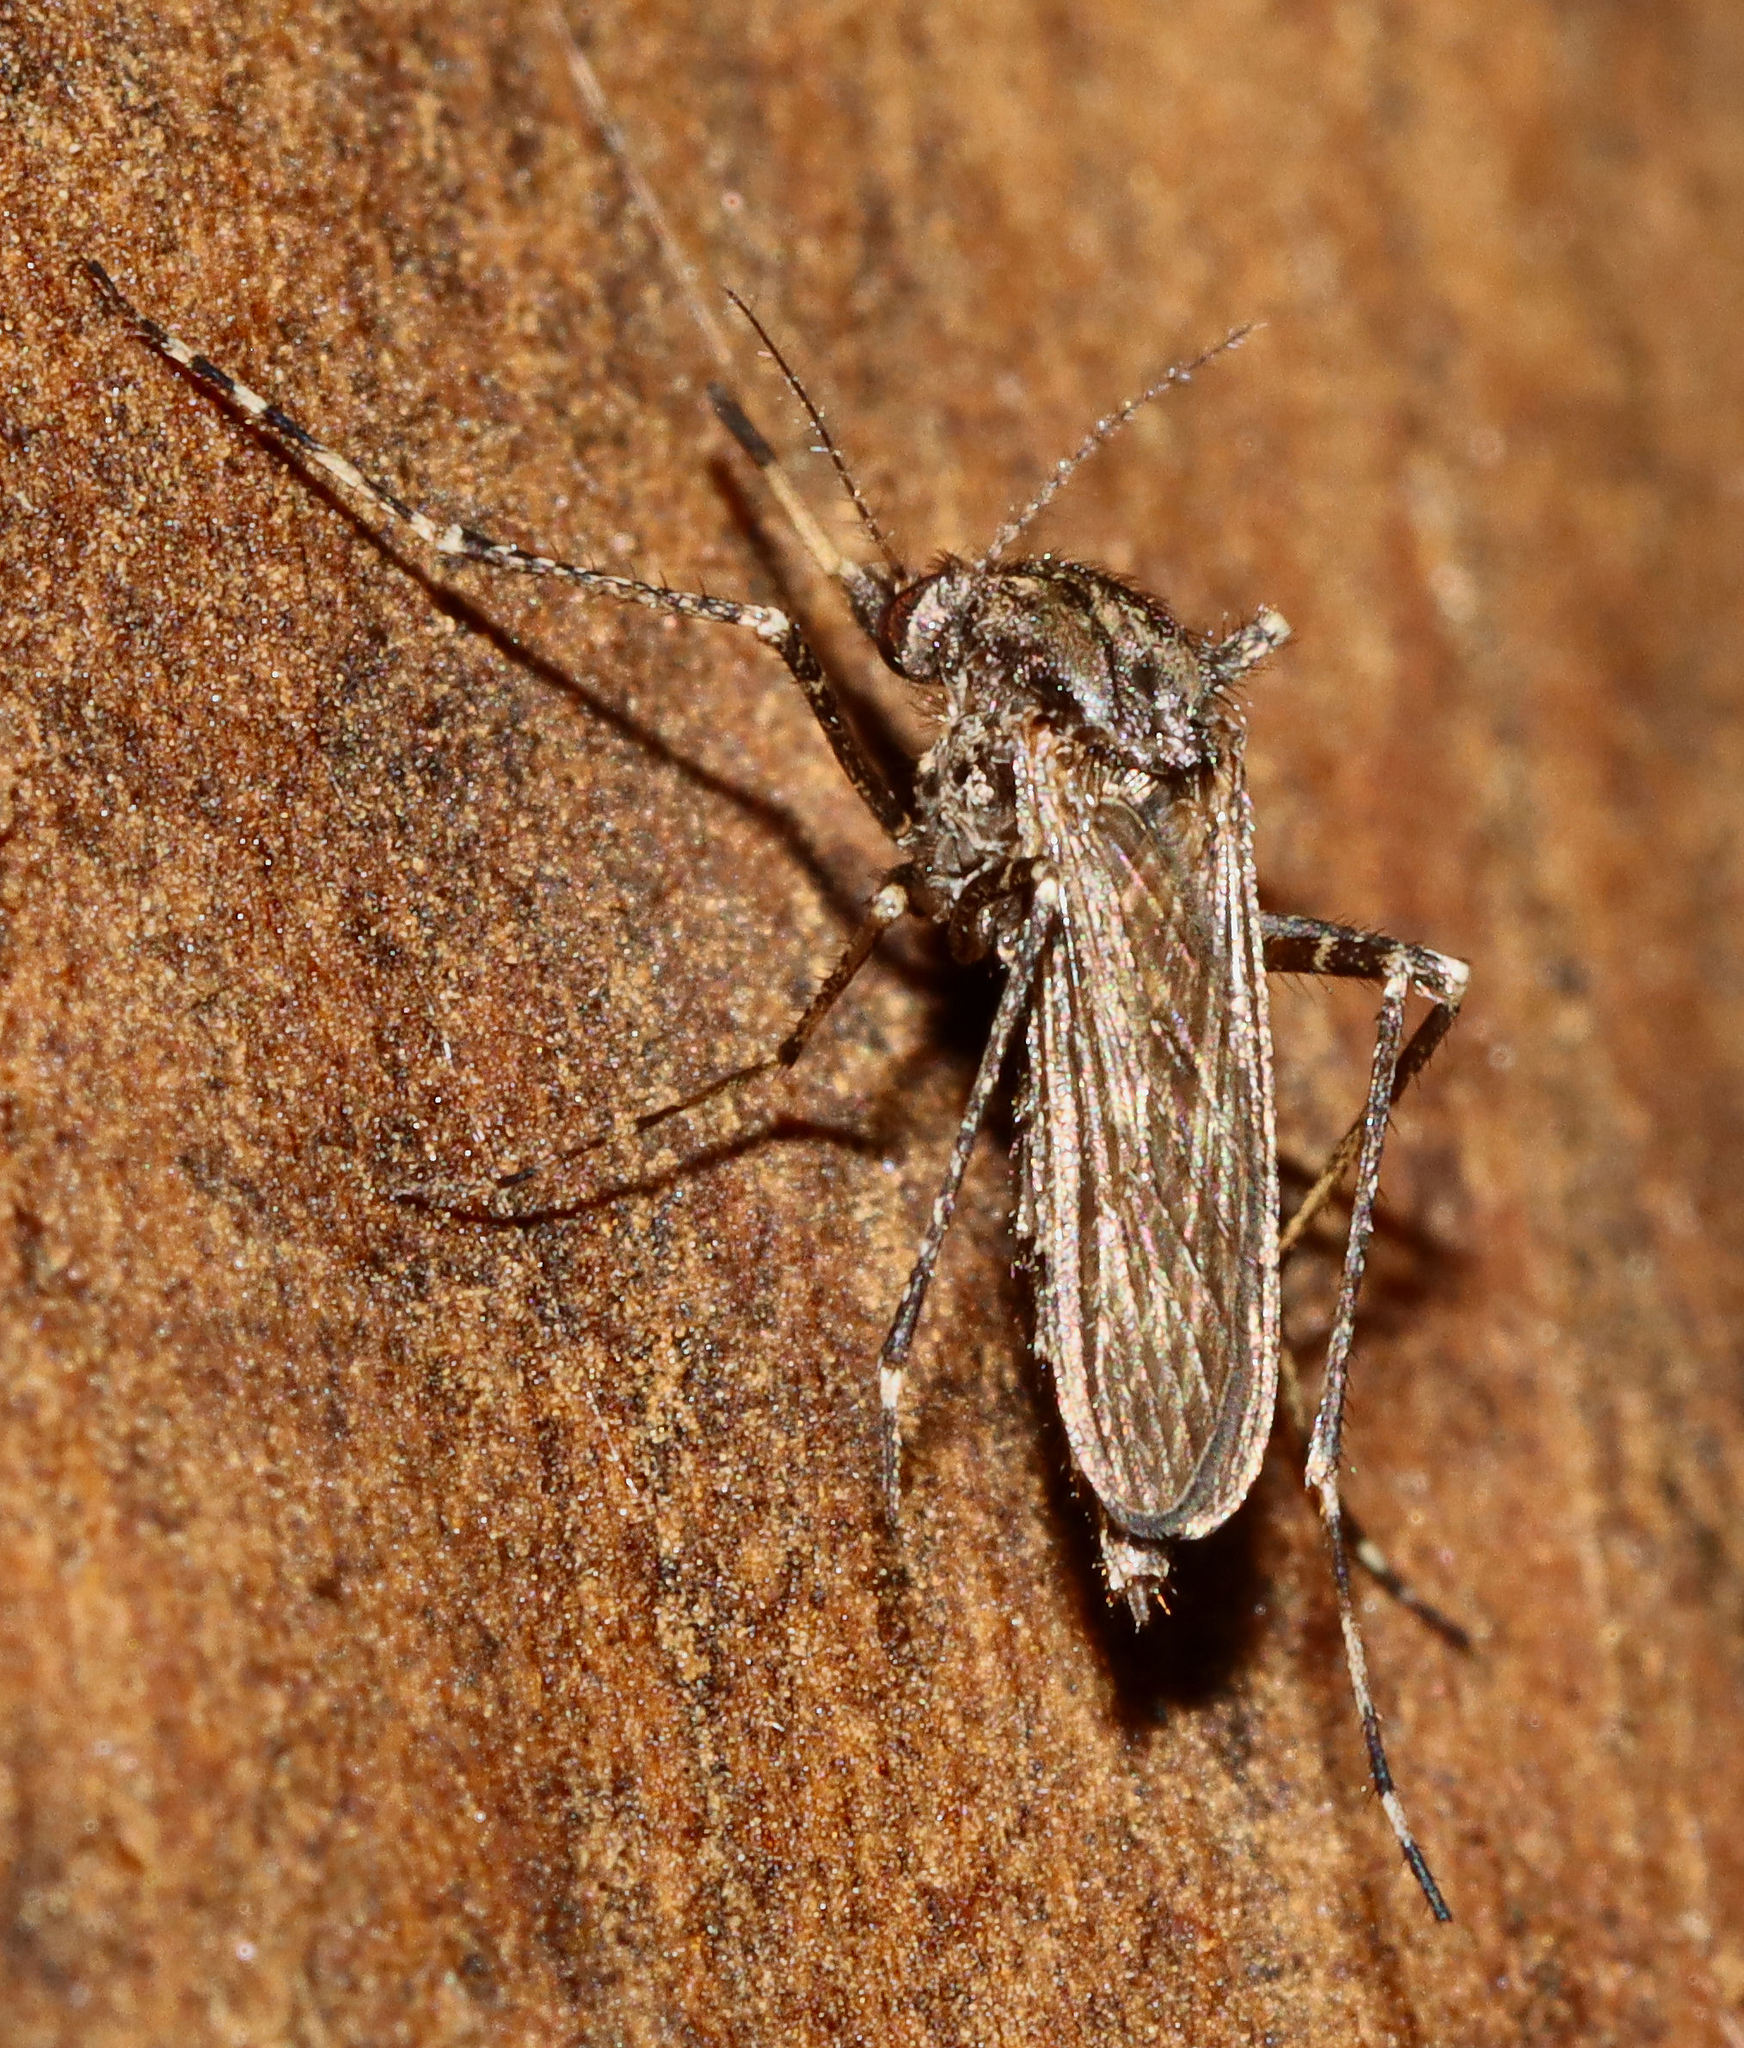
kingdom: Animalia
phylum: Arthropoda
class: Insecta
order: Diptera
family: Culicidae
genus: Psorophora
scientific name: Psorophora columbiae
